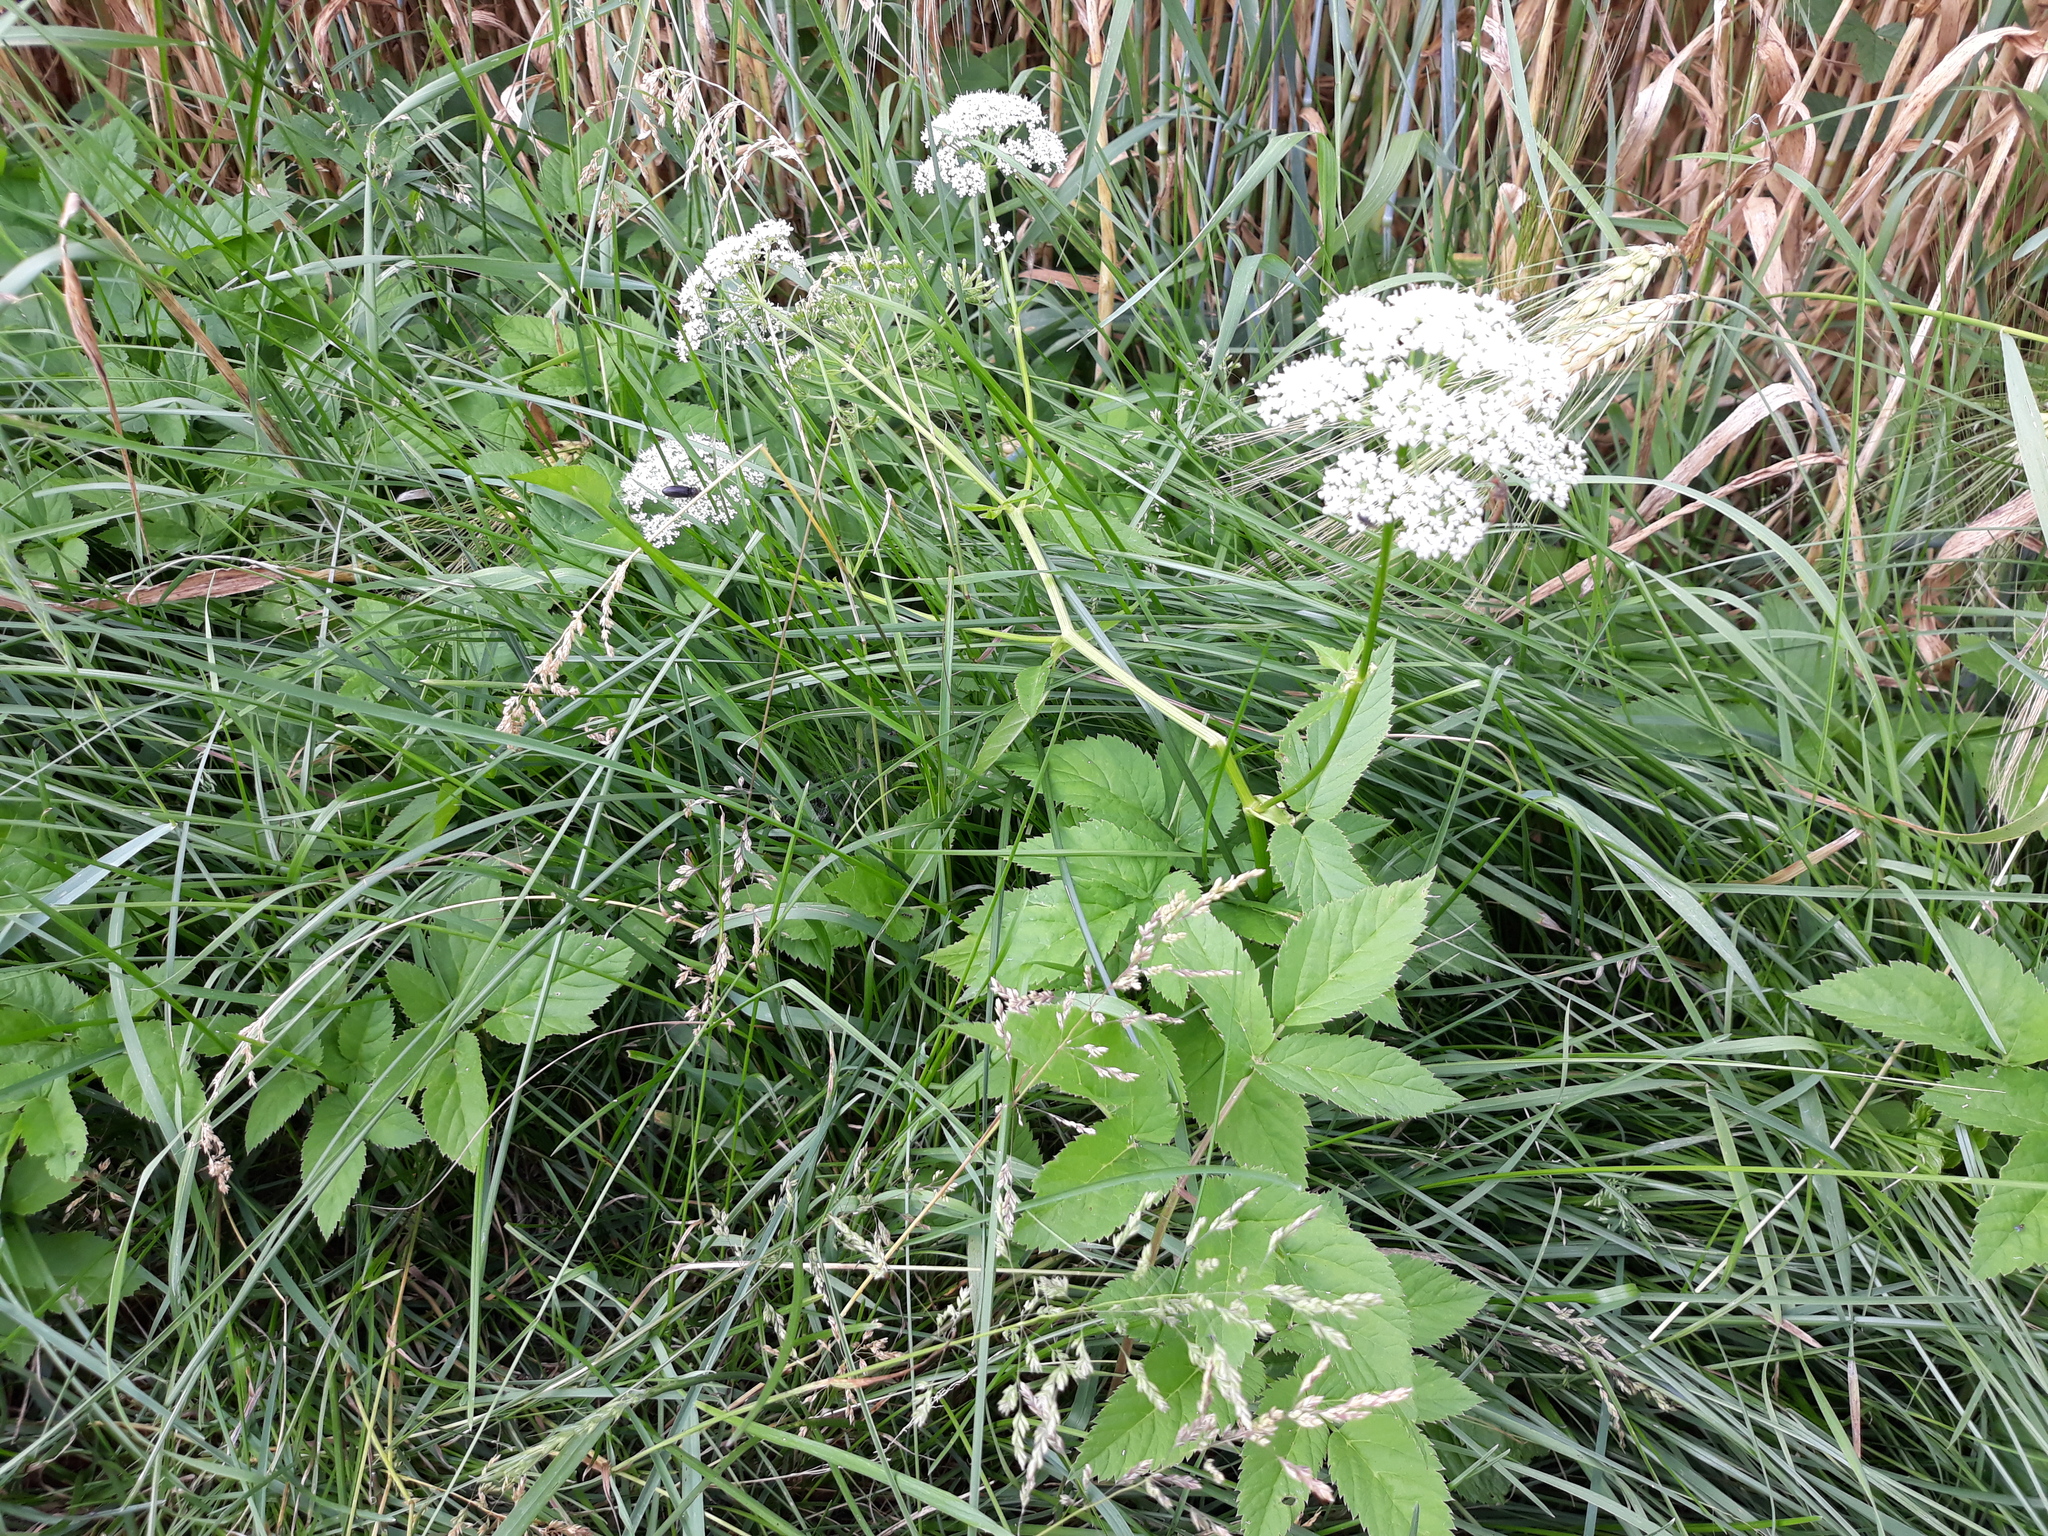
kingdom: Plantae
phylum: Tracheophyta
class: Magnoliopsida
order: Apiales
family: Apiaceae
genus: Aegopodium
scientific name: Aegopodium podagraria
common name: Ground-elder
